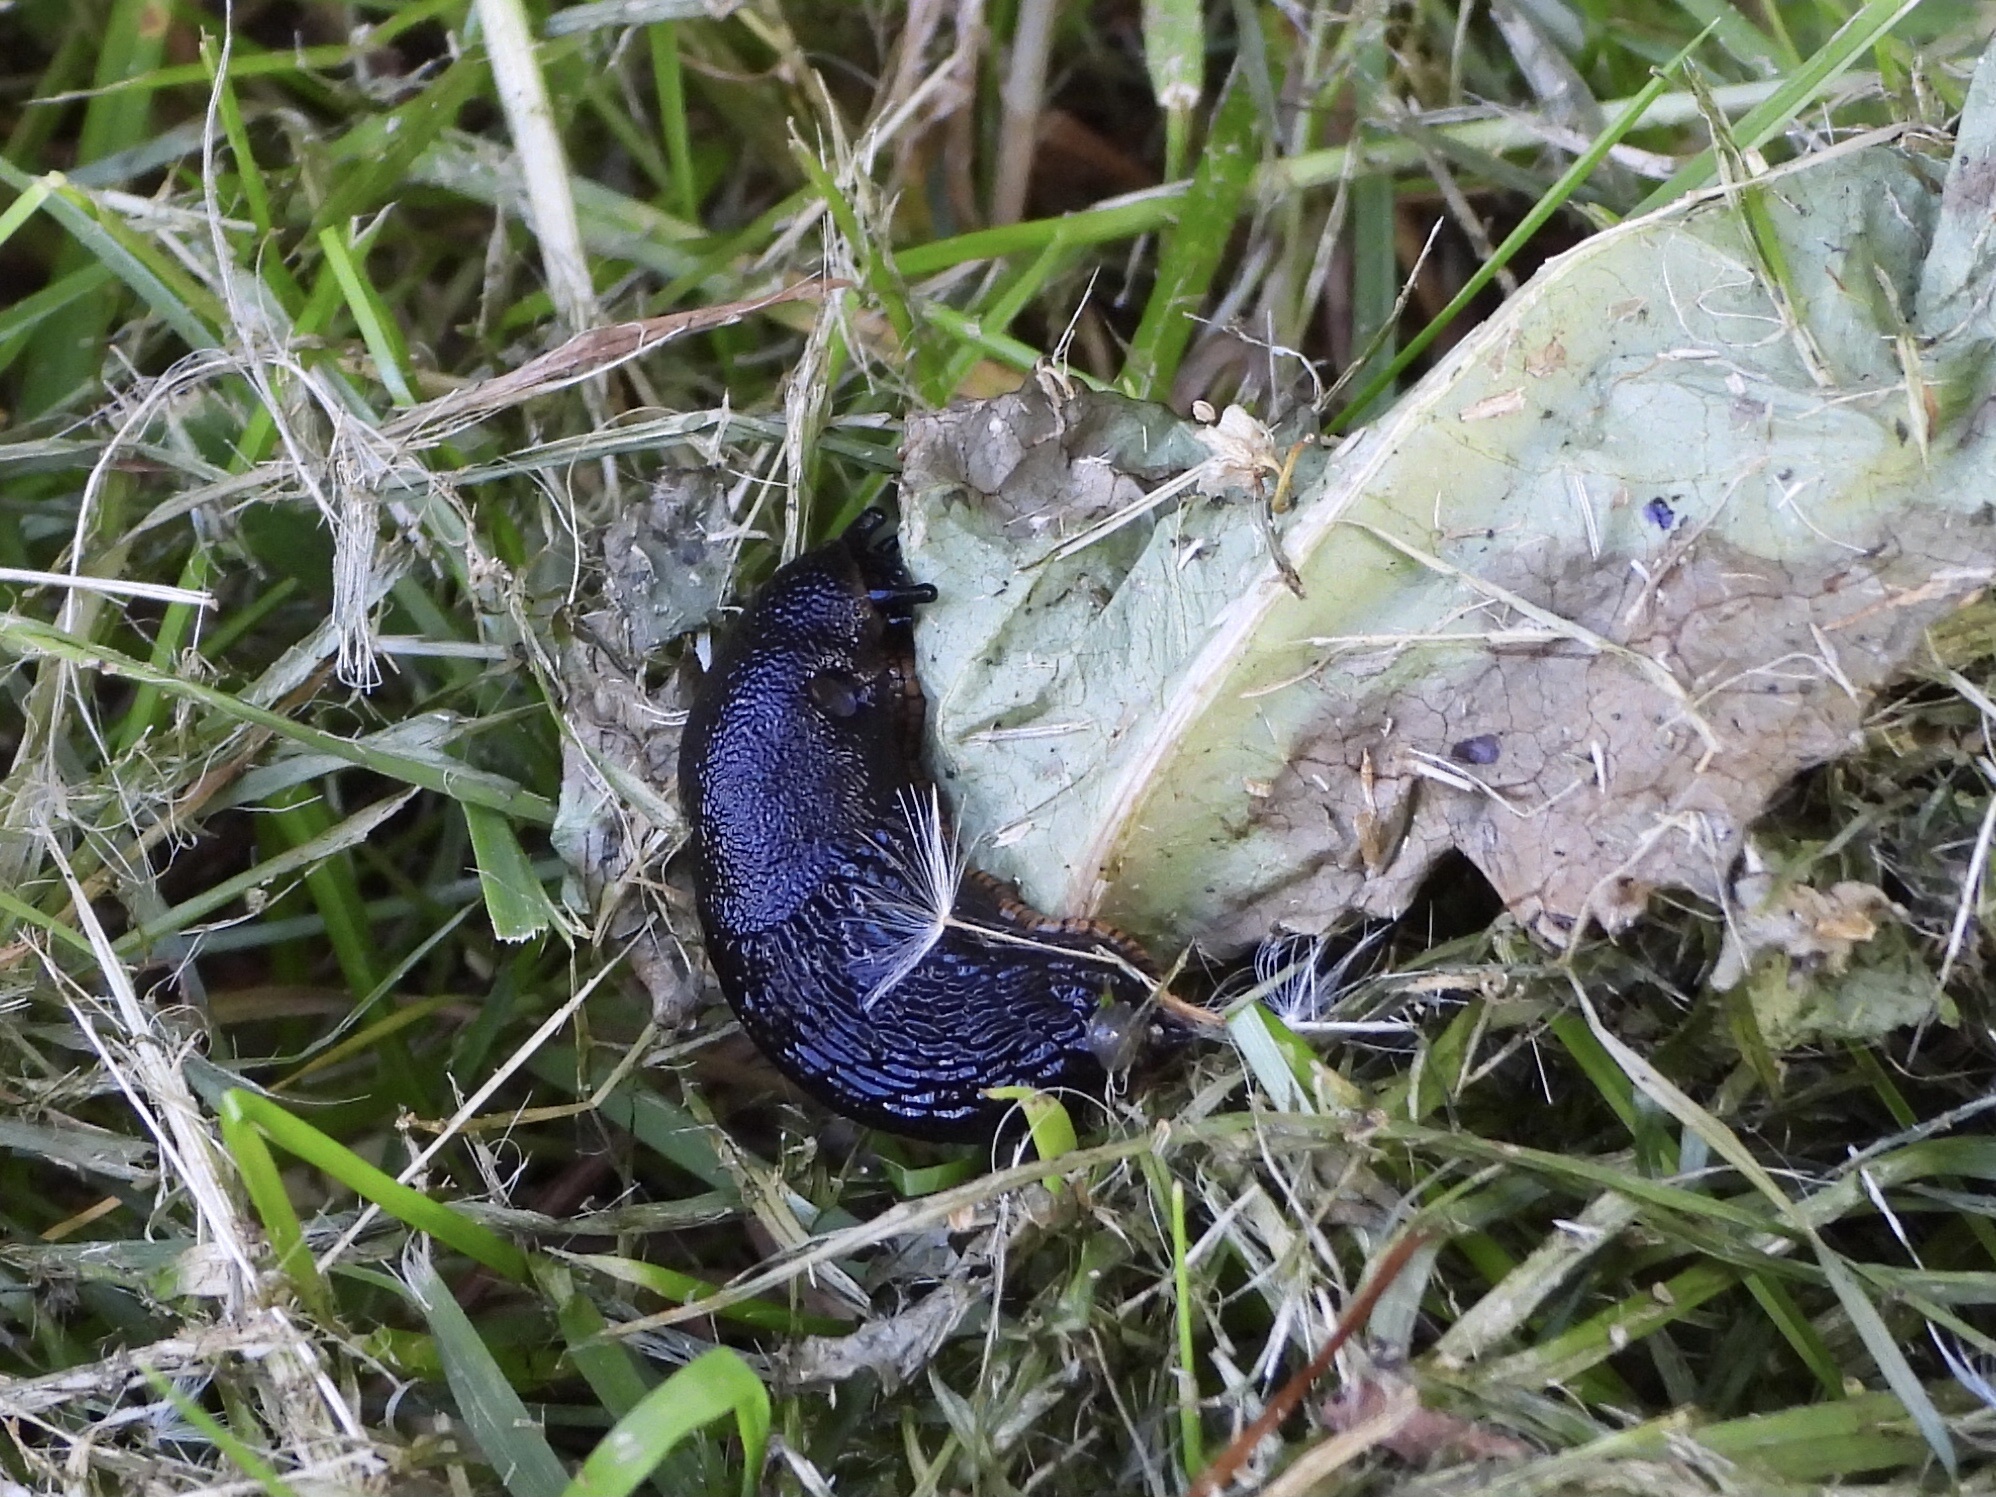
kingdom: Animalia
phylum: Mollusca
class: Gastropoda
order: Stylommatophora
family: Arionidae
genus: Arion
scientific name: Arion rufus
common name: Chocolate arion
